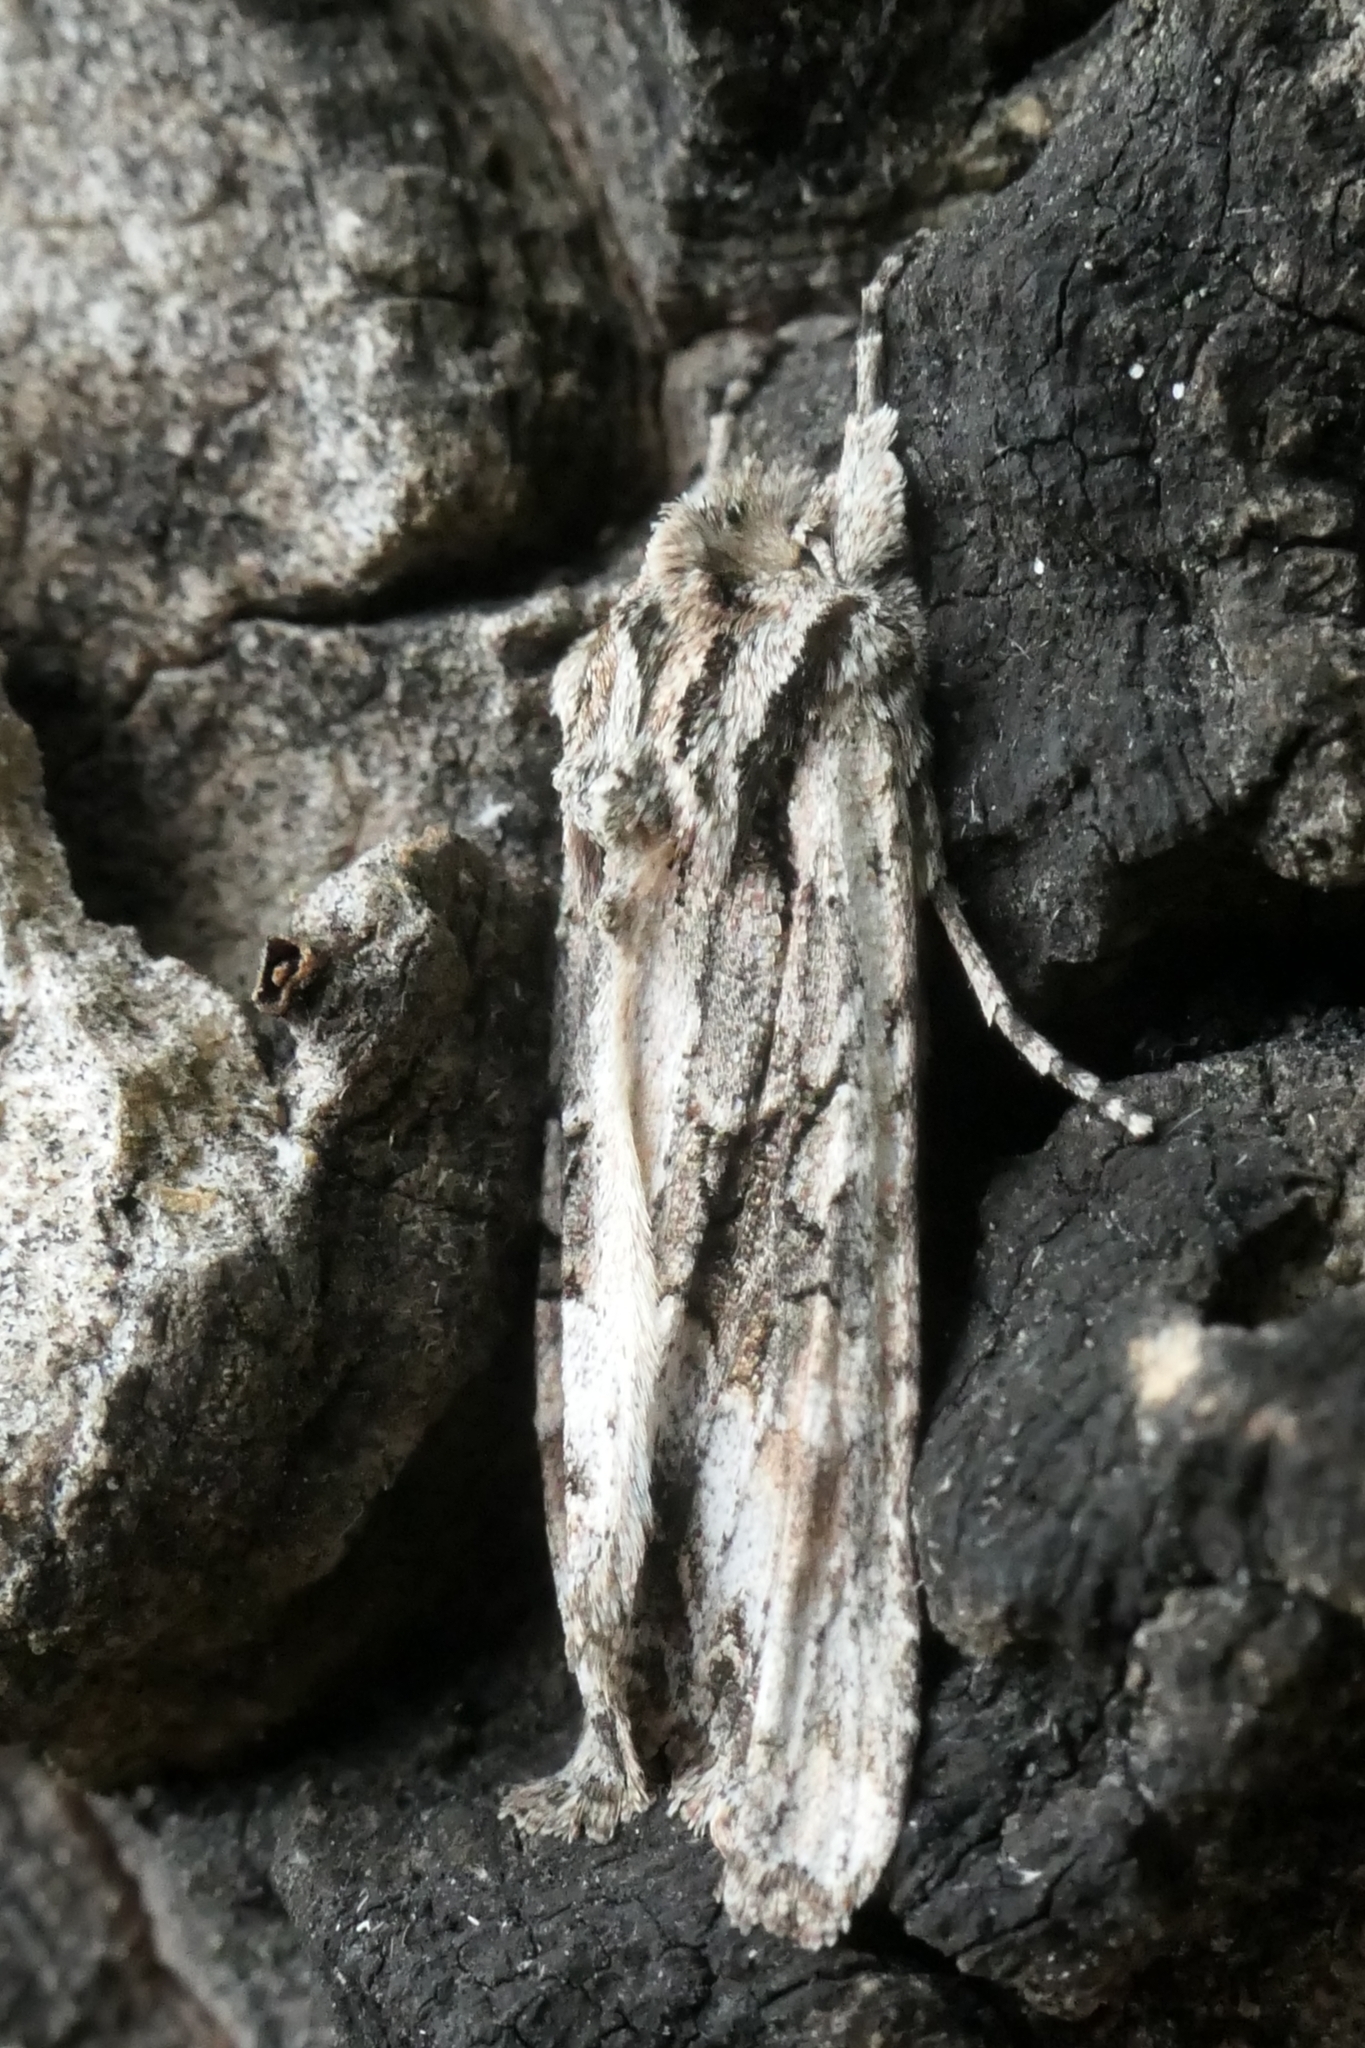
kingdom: Animalia
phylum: Arthropoda
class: Insecta
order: Lepidoptera
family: Noctuidae
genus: Ichneutica
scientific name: Ichneutica mutans
